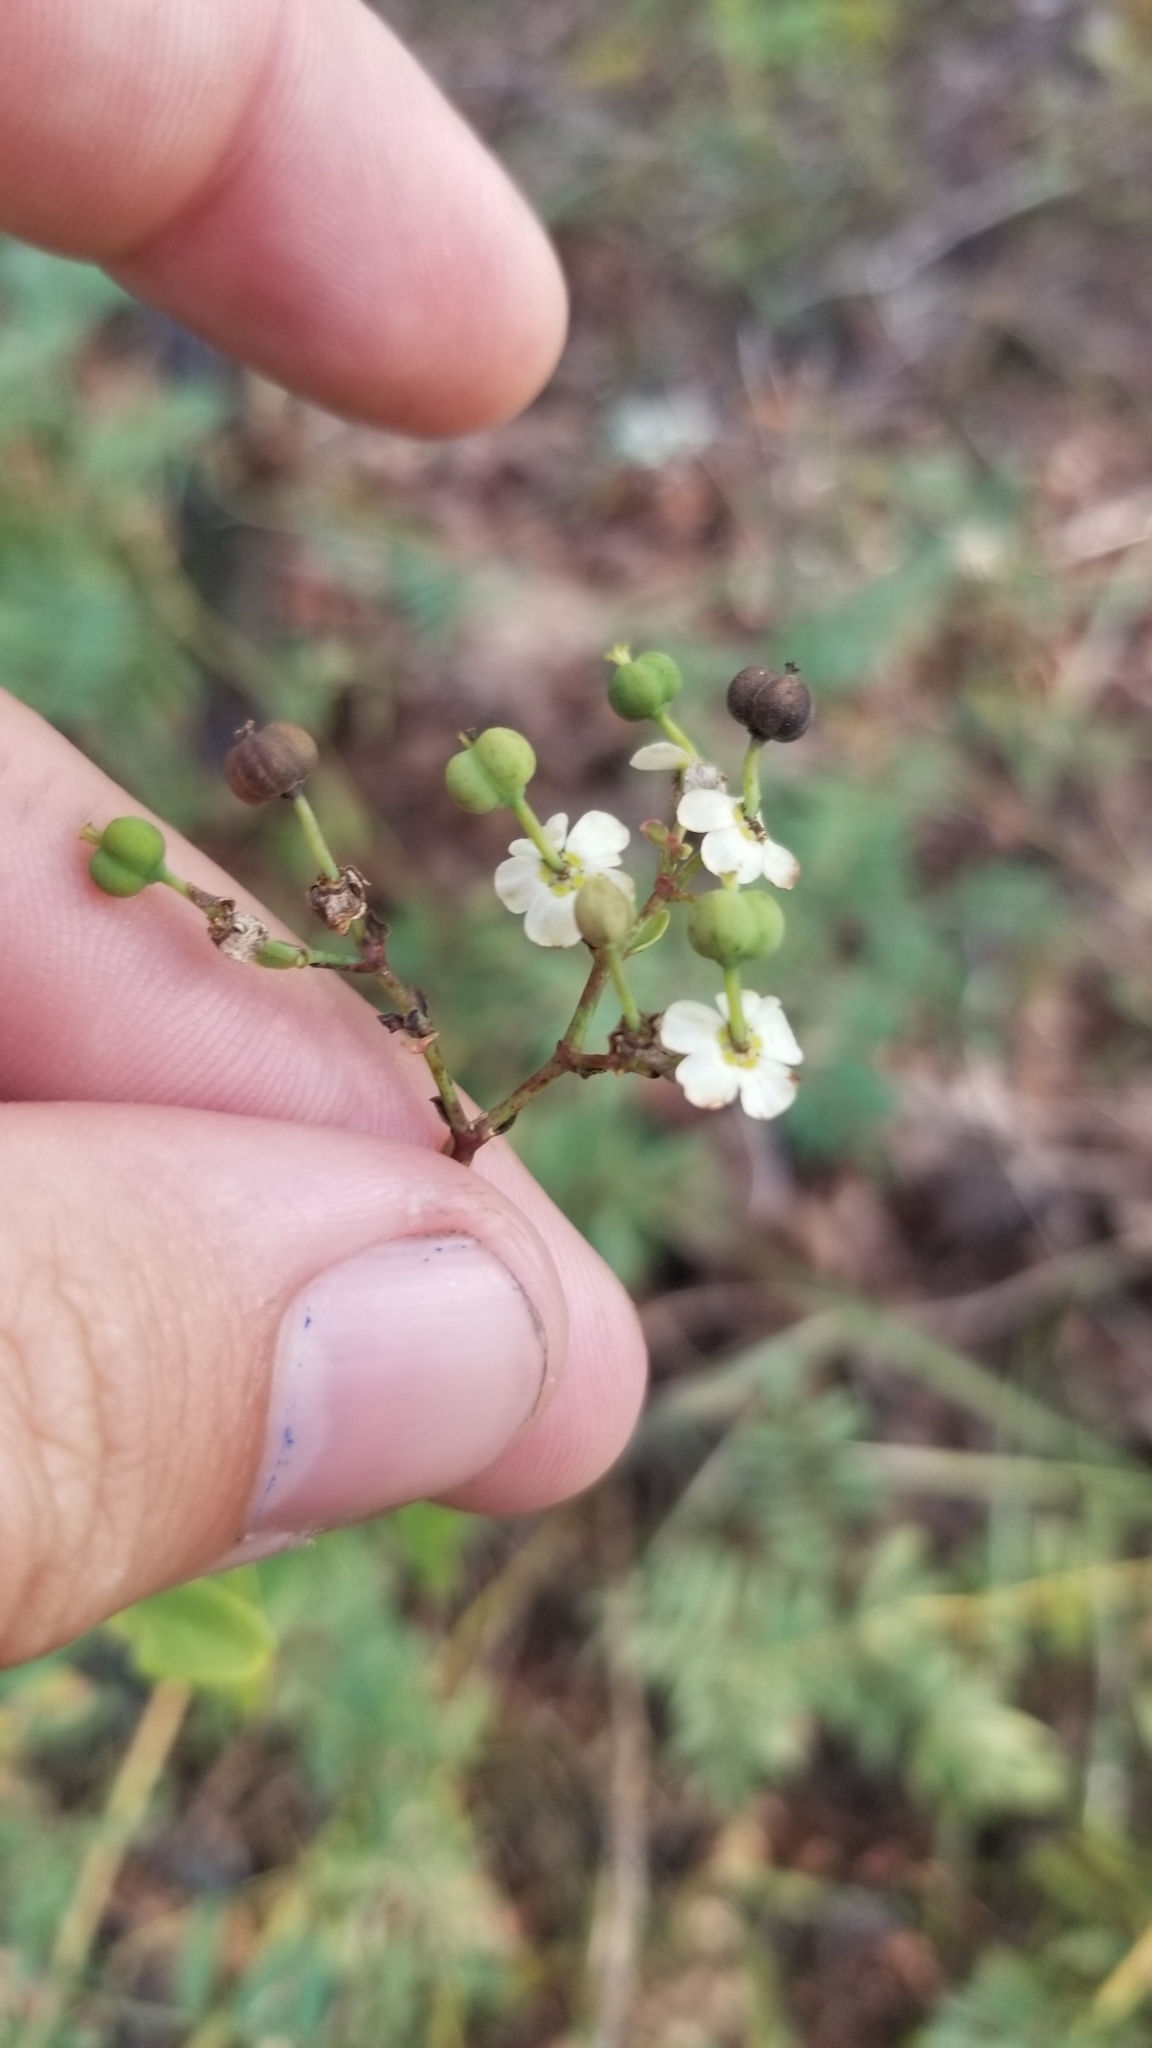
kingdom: Plantae
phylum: Tracheophyta
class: Magnoliopsida
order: Malpighiales
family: Euphorbiaceae
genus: Euphorbia
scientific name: Euphorbia pubentissima
